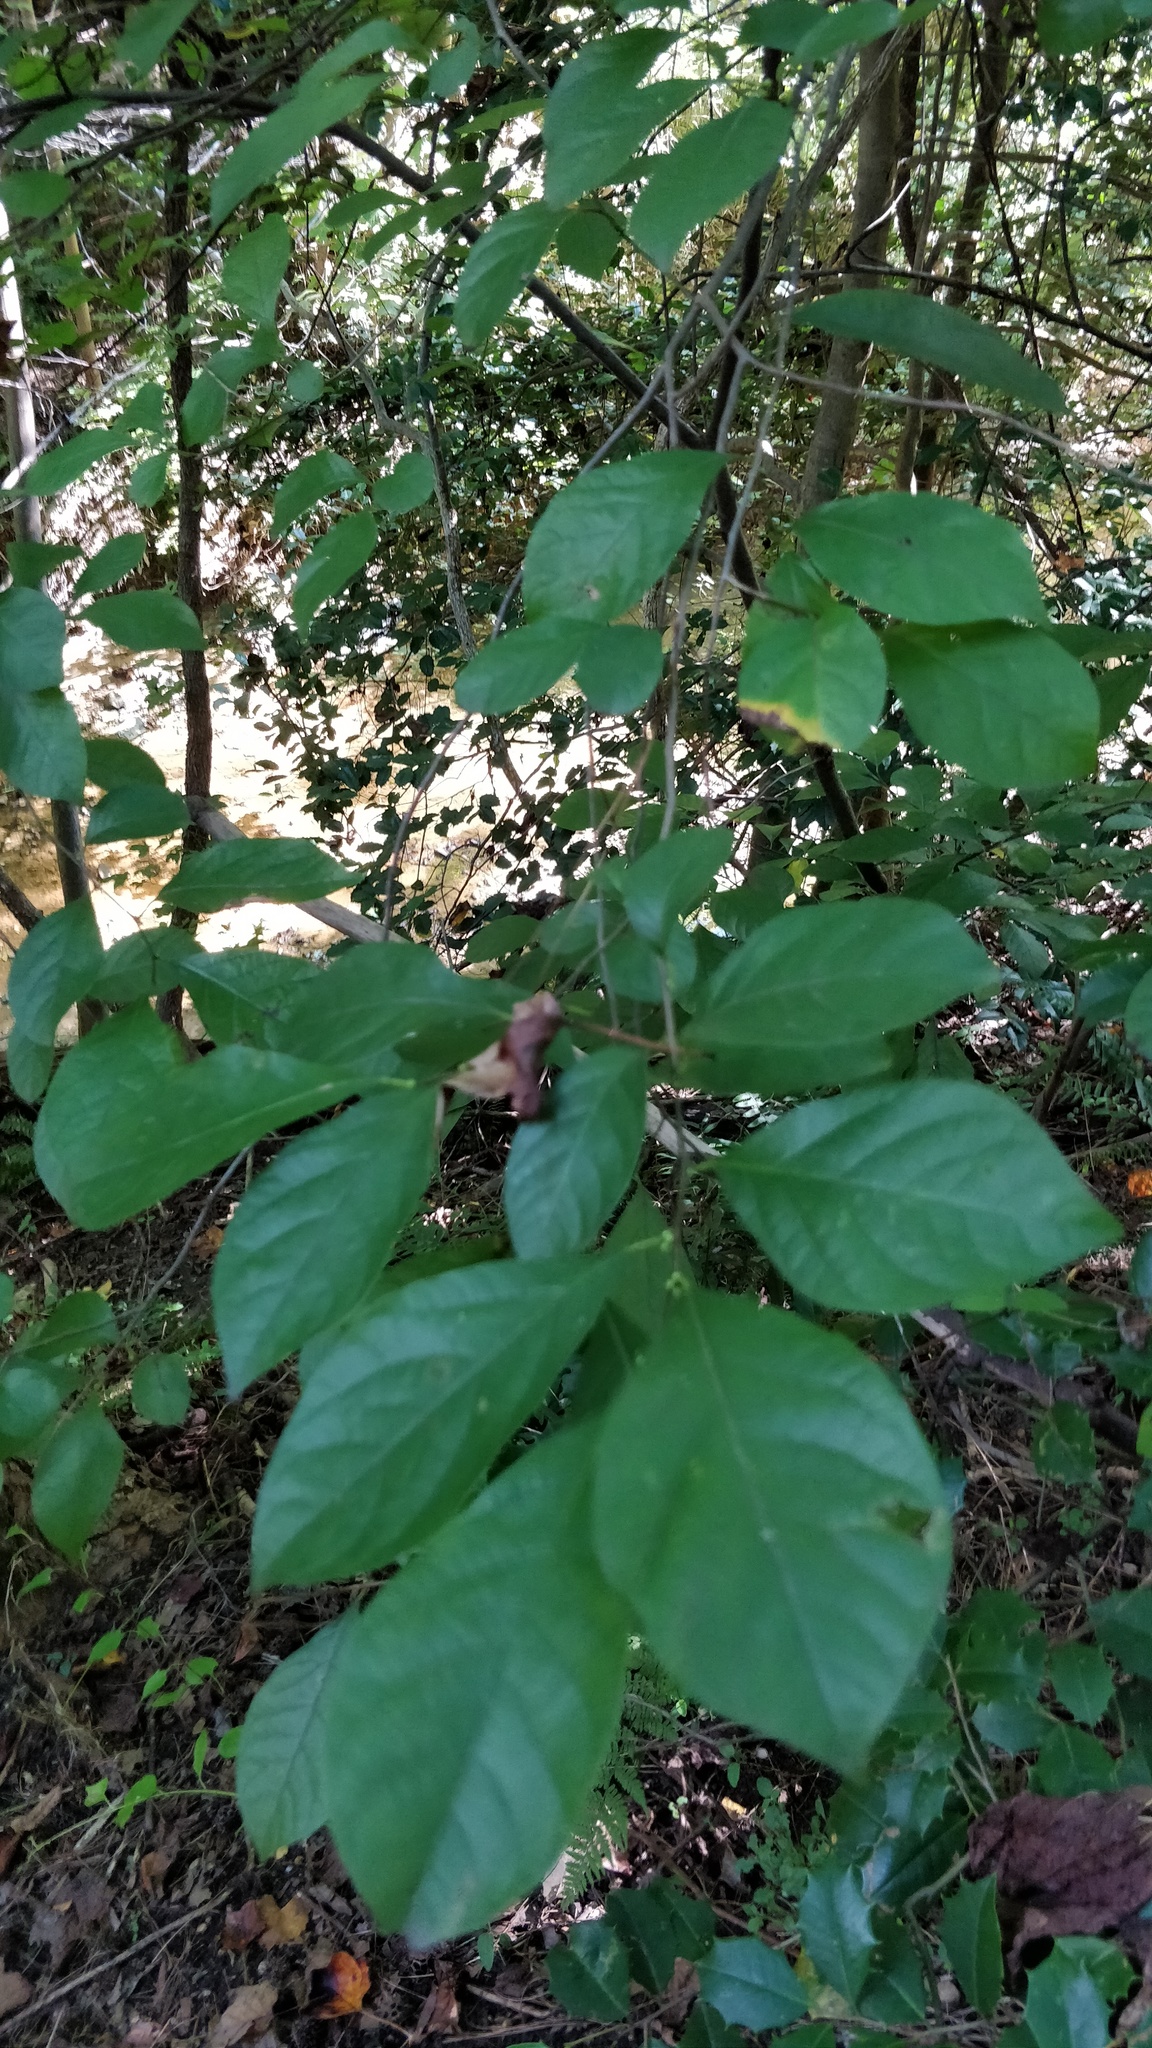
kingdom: Plantae
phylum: Tracheophyta
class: Magnoliopsida
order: Laurales
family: Lauraceae
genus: Lindera
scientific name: Lindera benzoin
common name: Spicebush
